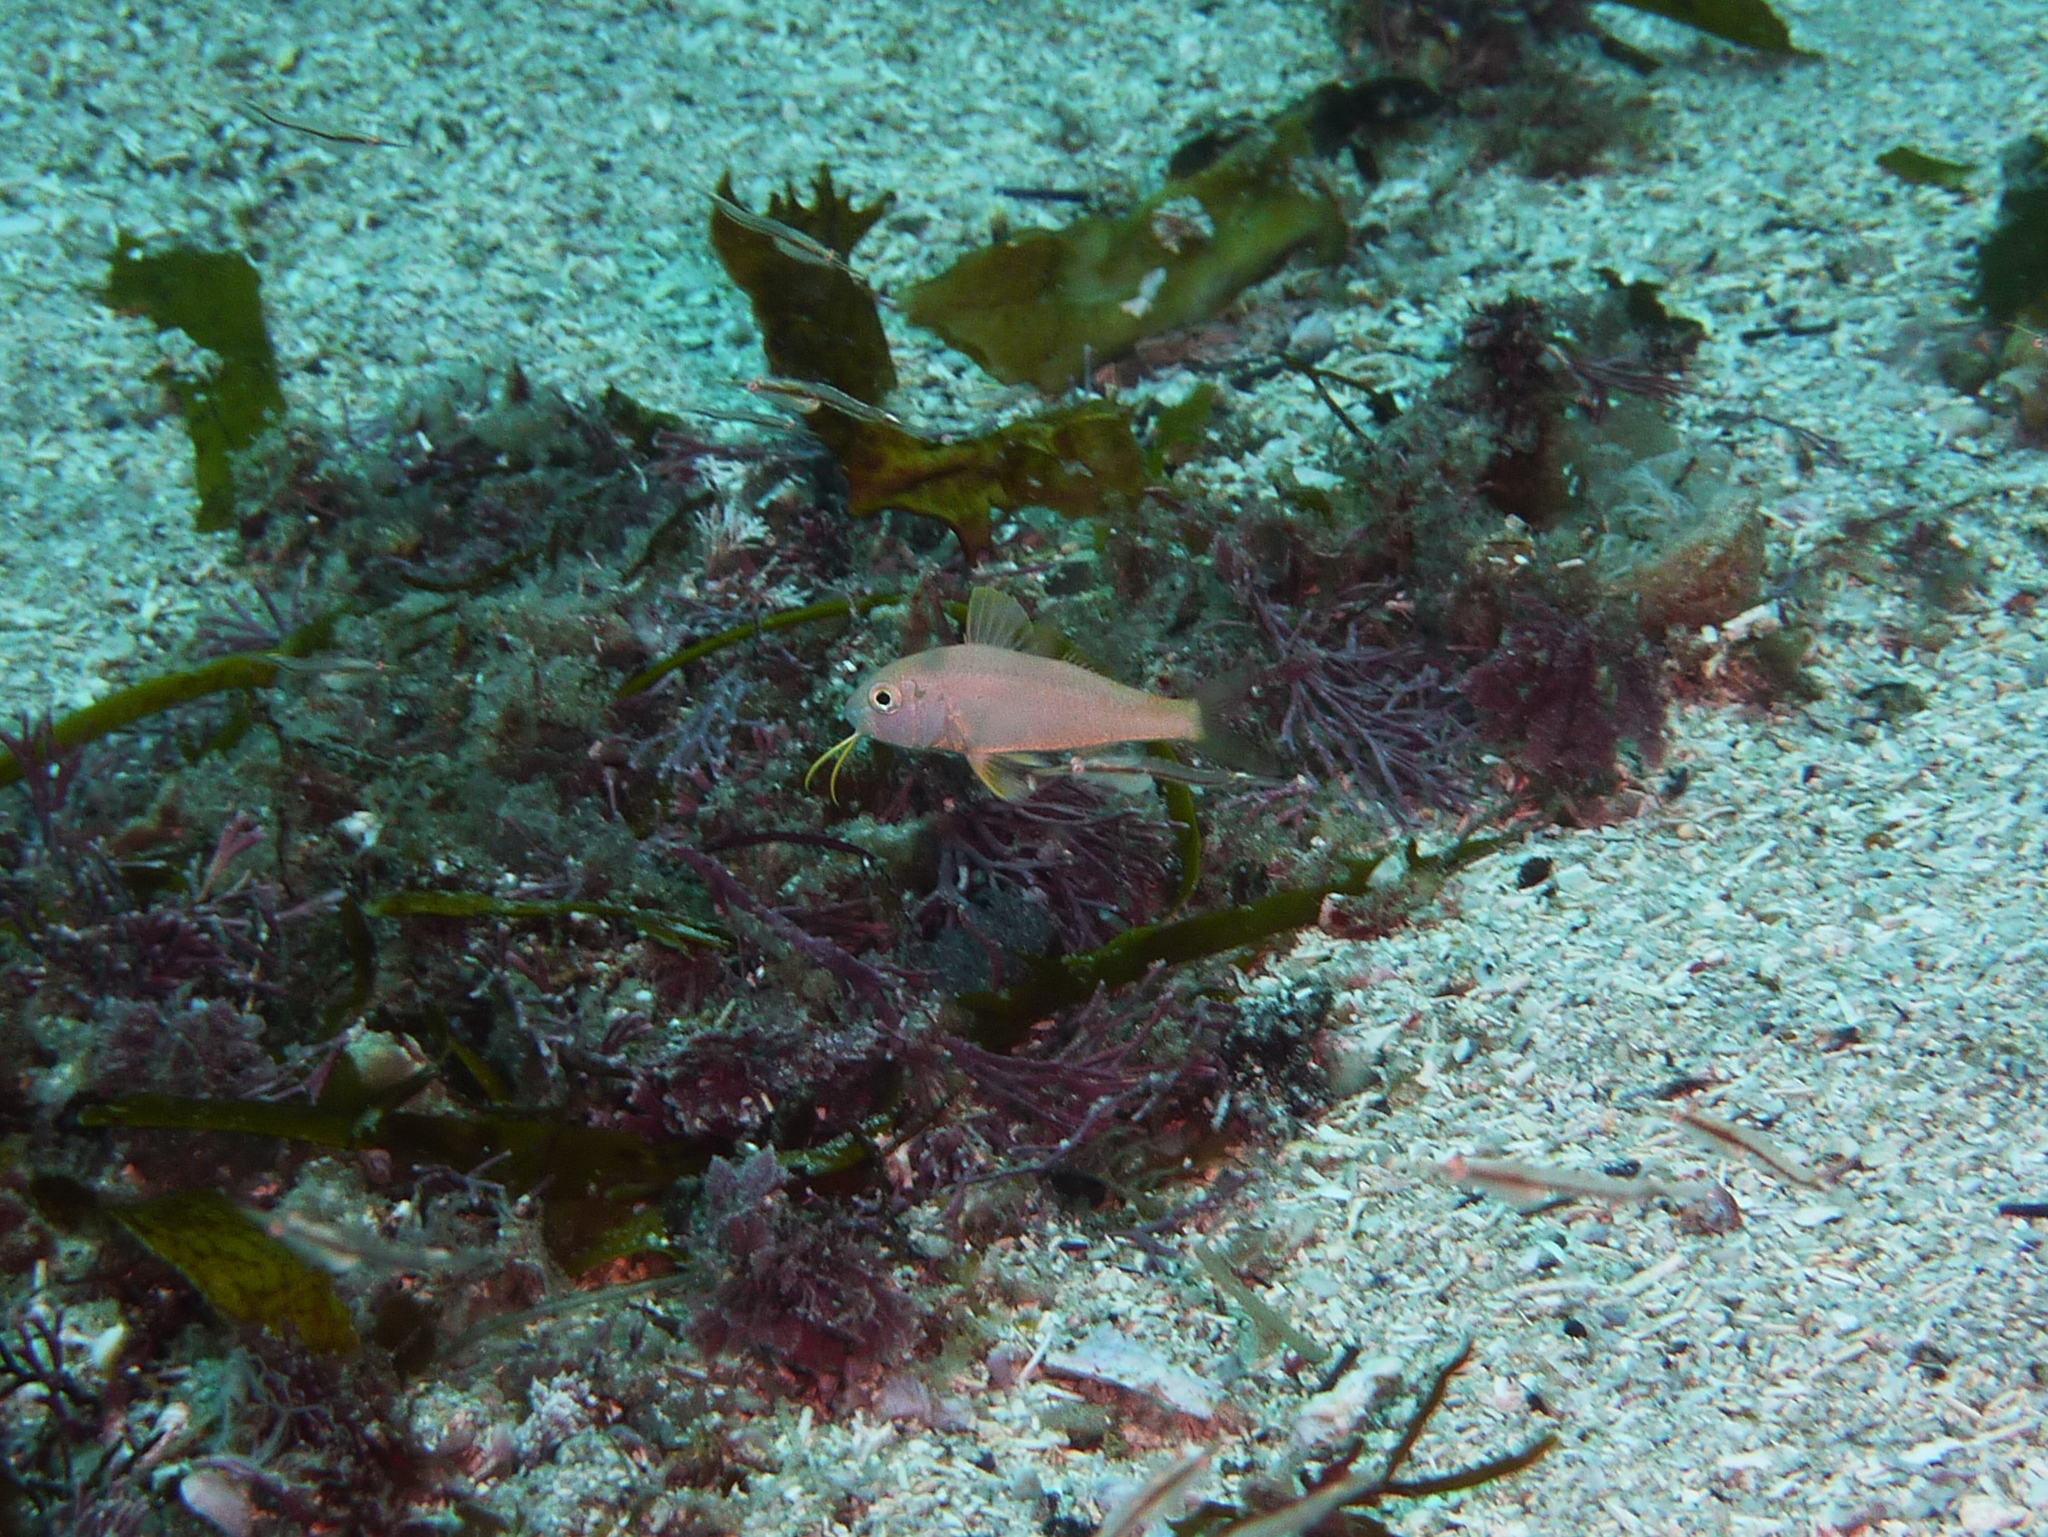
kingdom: Animalia
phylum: Chordata
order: Perciformes
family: Mullidae
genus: Upeneichthys
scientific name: Upeneichthys lineatus
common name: Red mullet
